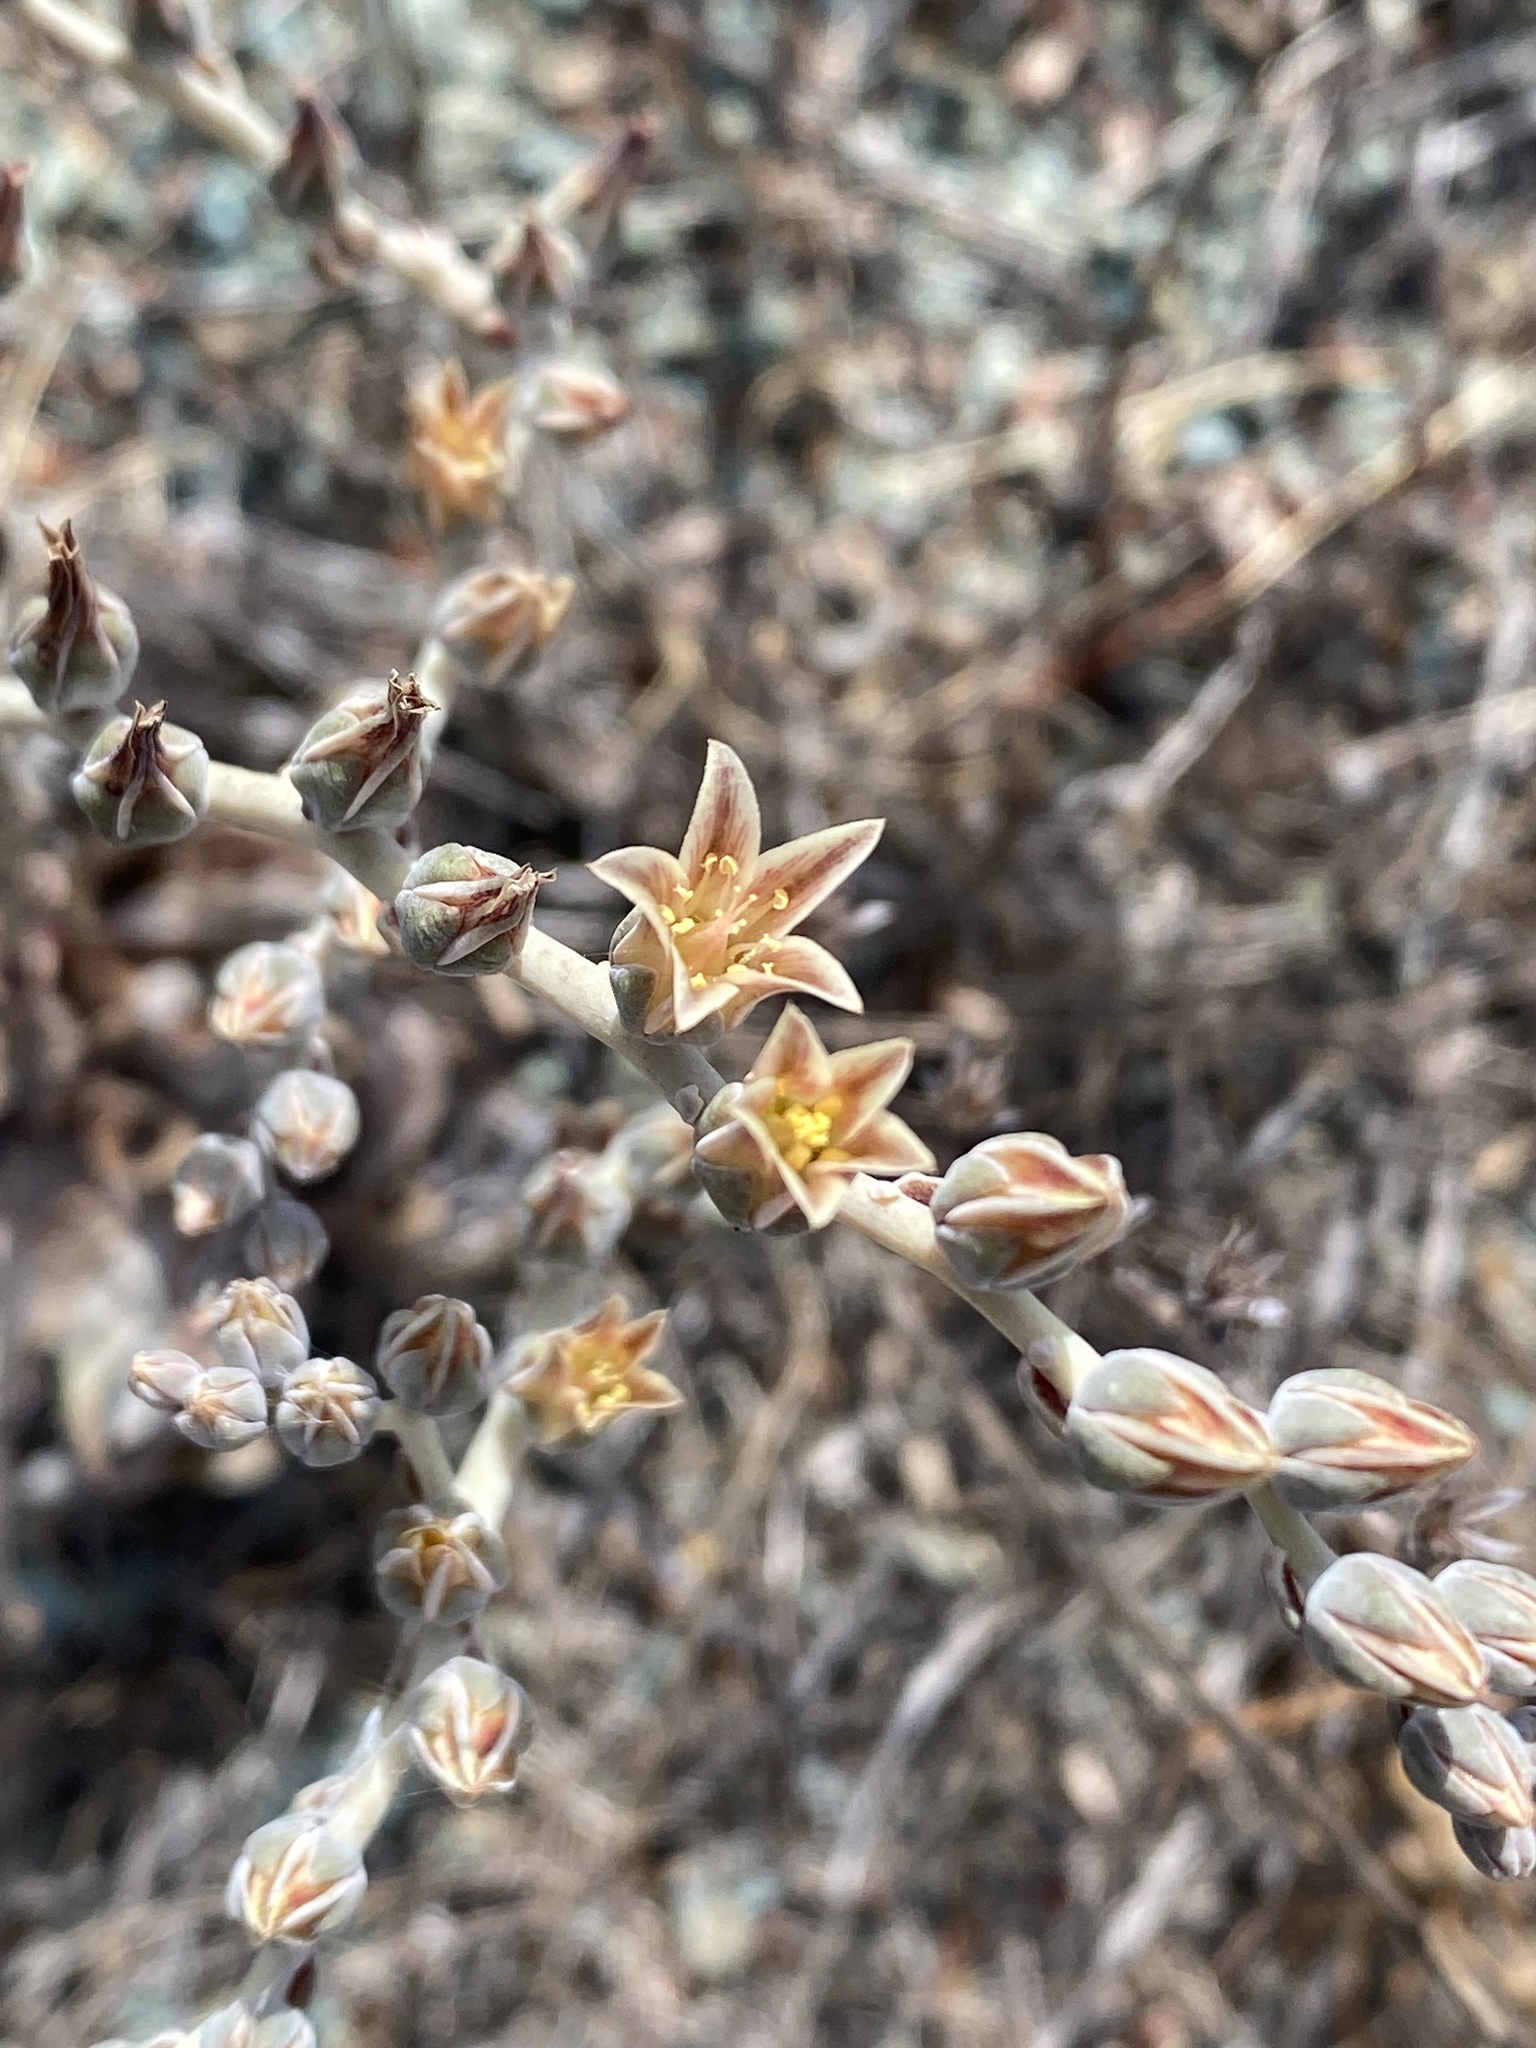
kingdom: Plantae
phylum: Tracheophyta
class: Magnoliopsida
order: Saxifragales
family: Crassulaceae
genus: Dudleya
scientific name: Dudleya abramsii
